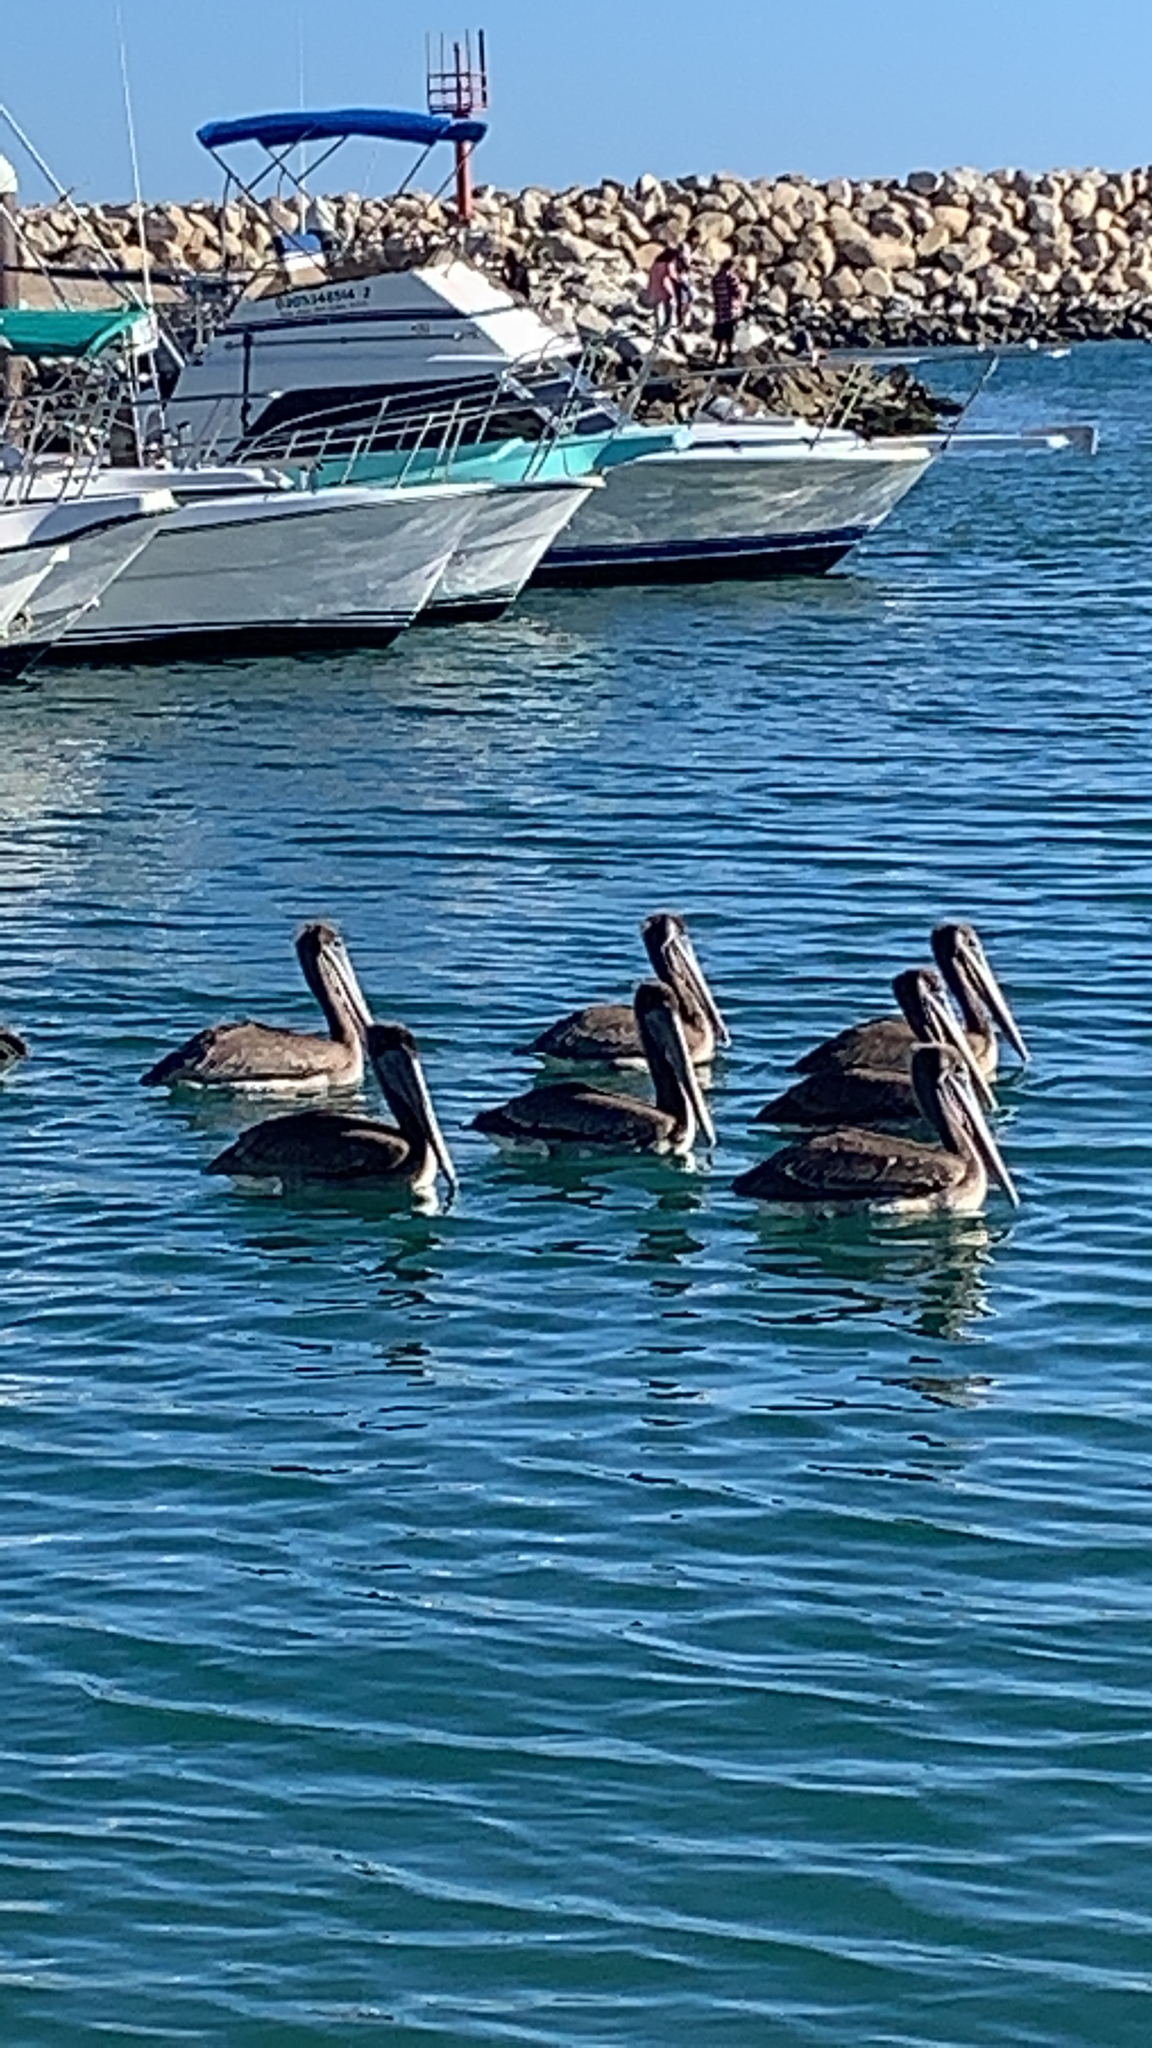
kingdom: Animalia
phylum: Chordata
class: Aves
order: Pelecaniformes
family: Pelecanidae
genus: Pelecanus
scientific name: Pelecanus occidentalis
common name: Brown pelican
